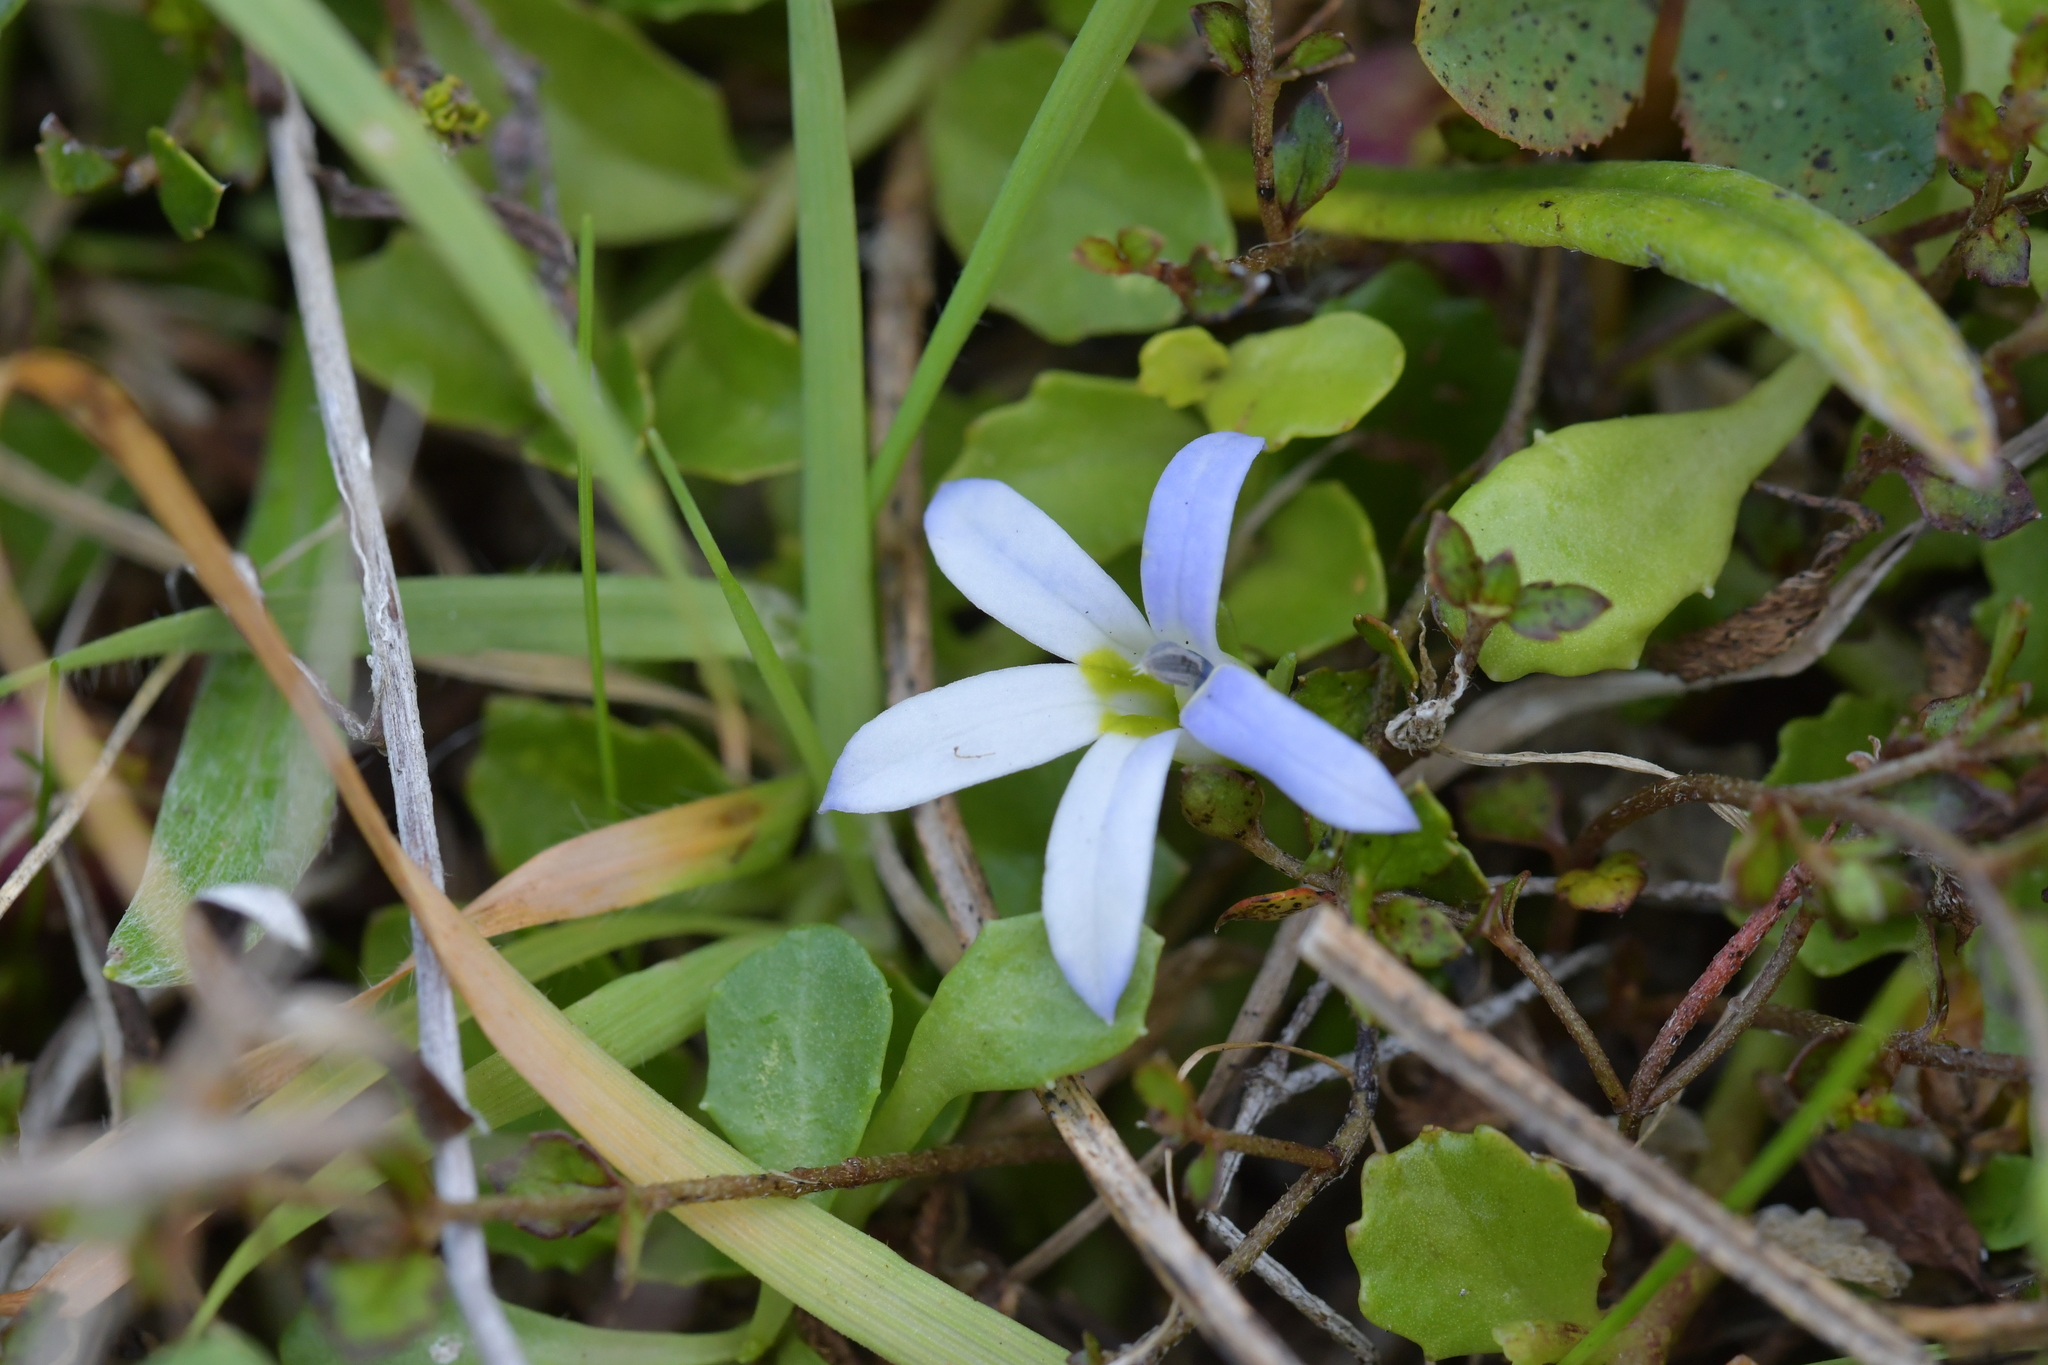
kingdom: Plantae
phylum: Tracheophyta
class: Magnoliopsida
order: Asterales
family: Campanulaceae
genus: Lobelia
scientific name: Lobelia arenaria
